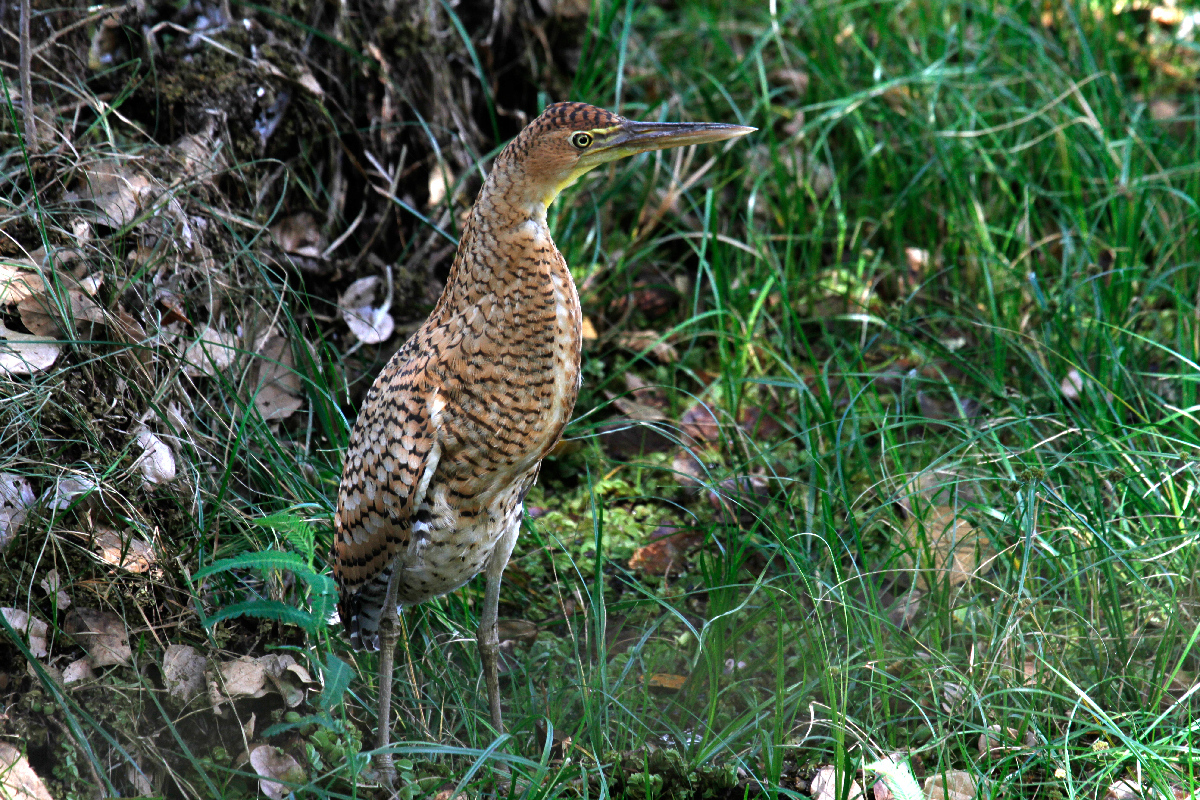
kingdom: Animalia
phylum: Chordata
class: Aves
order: Pelecaniformes
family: Ardeidae
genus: Tigrisoma
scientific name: Tigrisoma mexicanum
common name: Bare-throated tiger-heron
